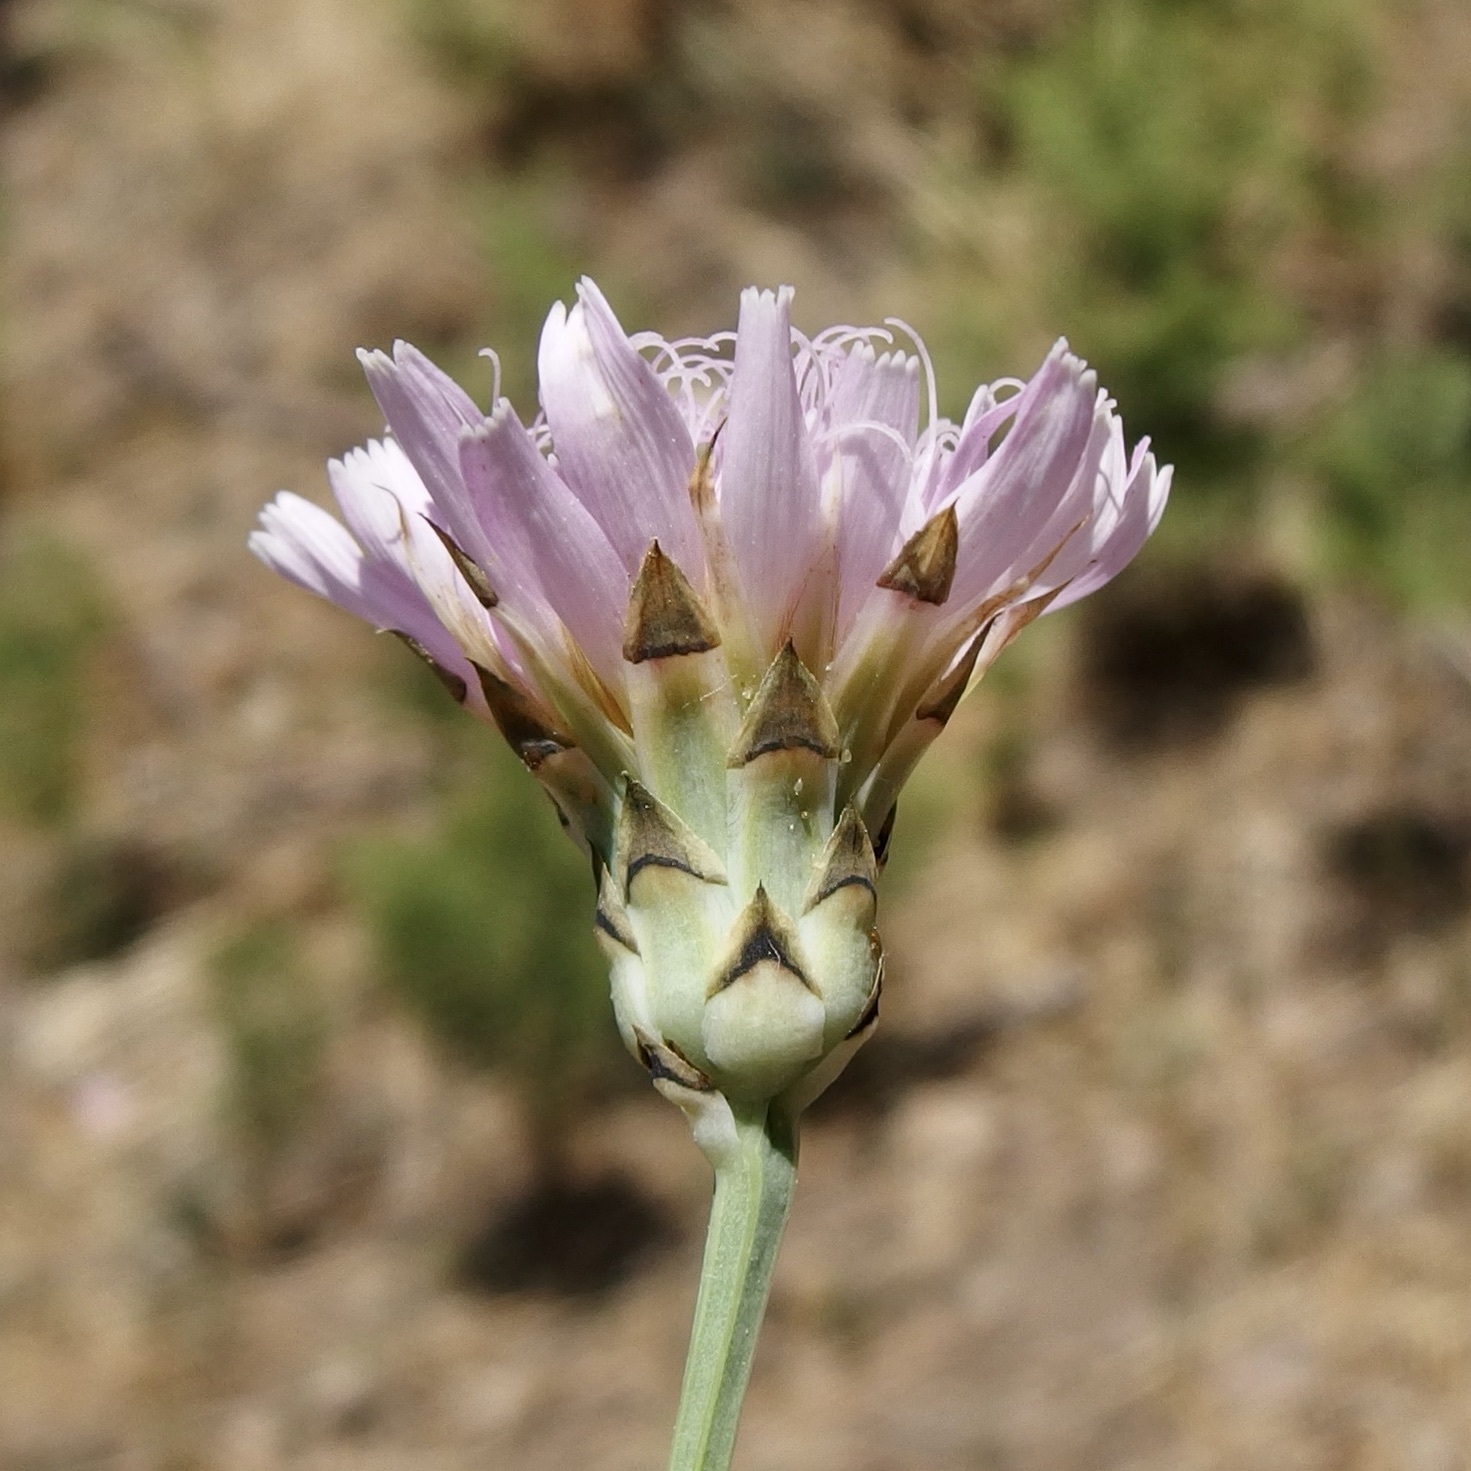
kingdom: Plantae
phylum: Tracheophyta
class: Magnoliopsida
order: Asterales
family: Asteraceae
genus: Pinaropappus
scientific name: Pinaropappus roseus
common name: Rock-lettuce
